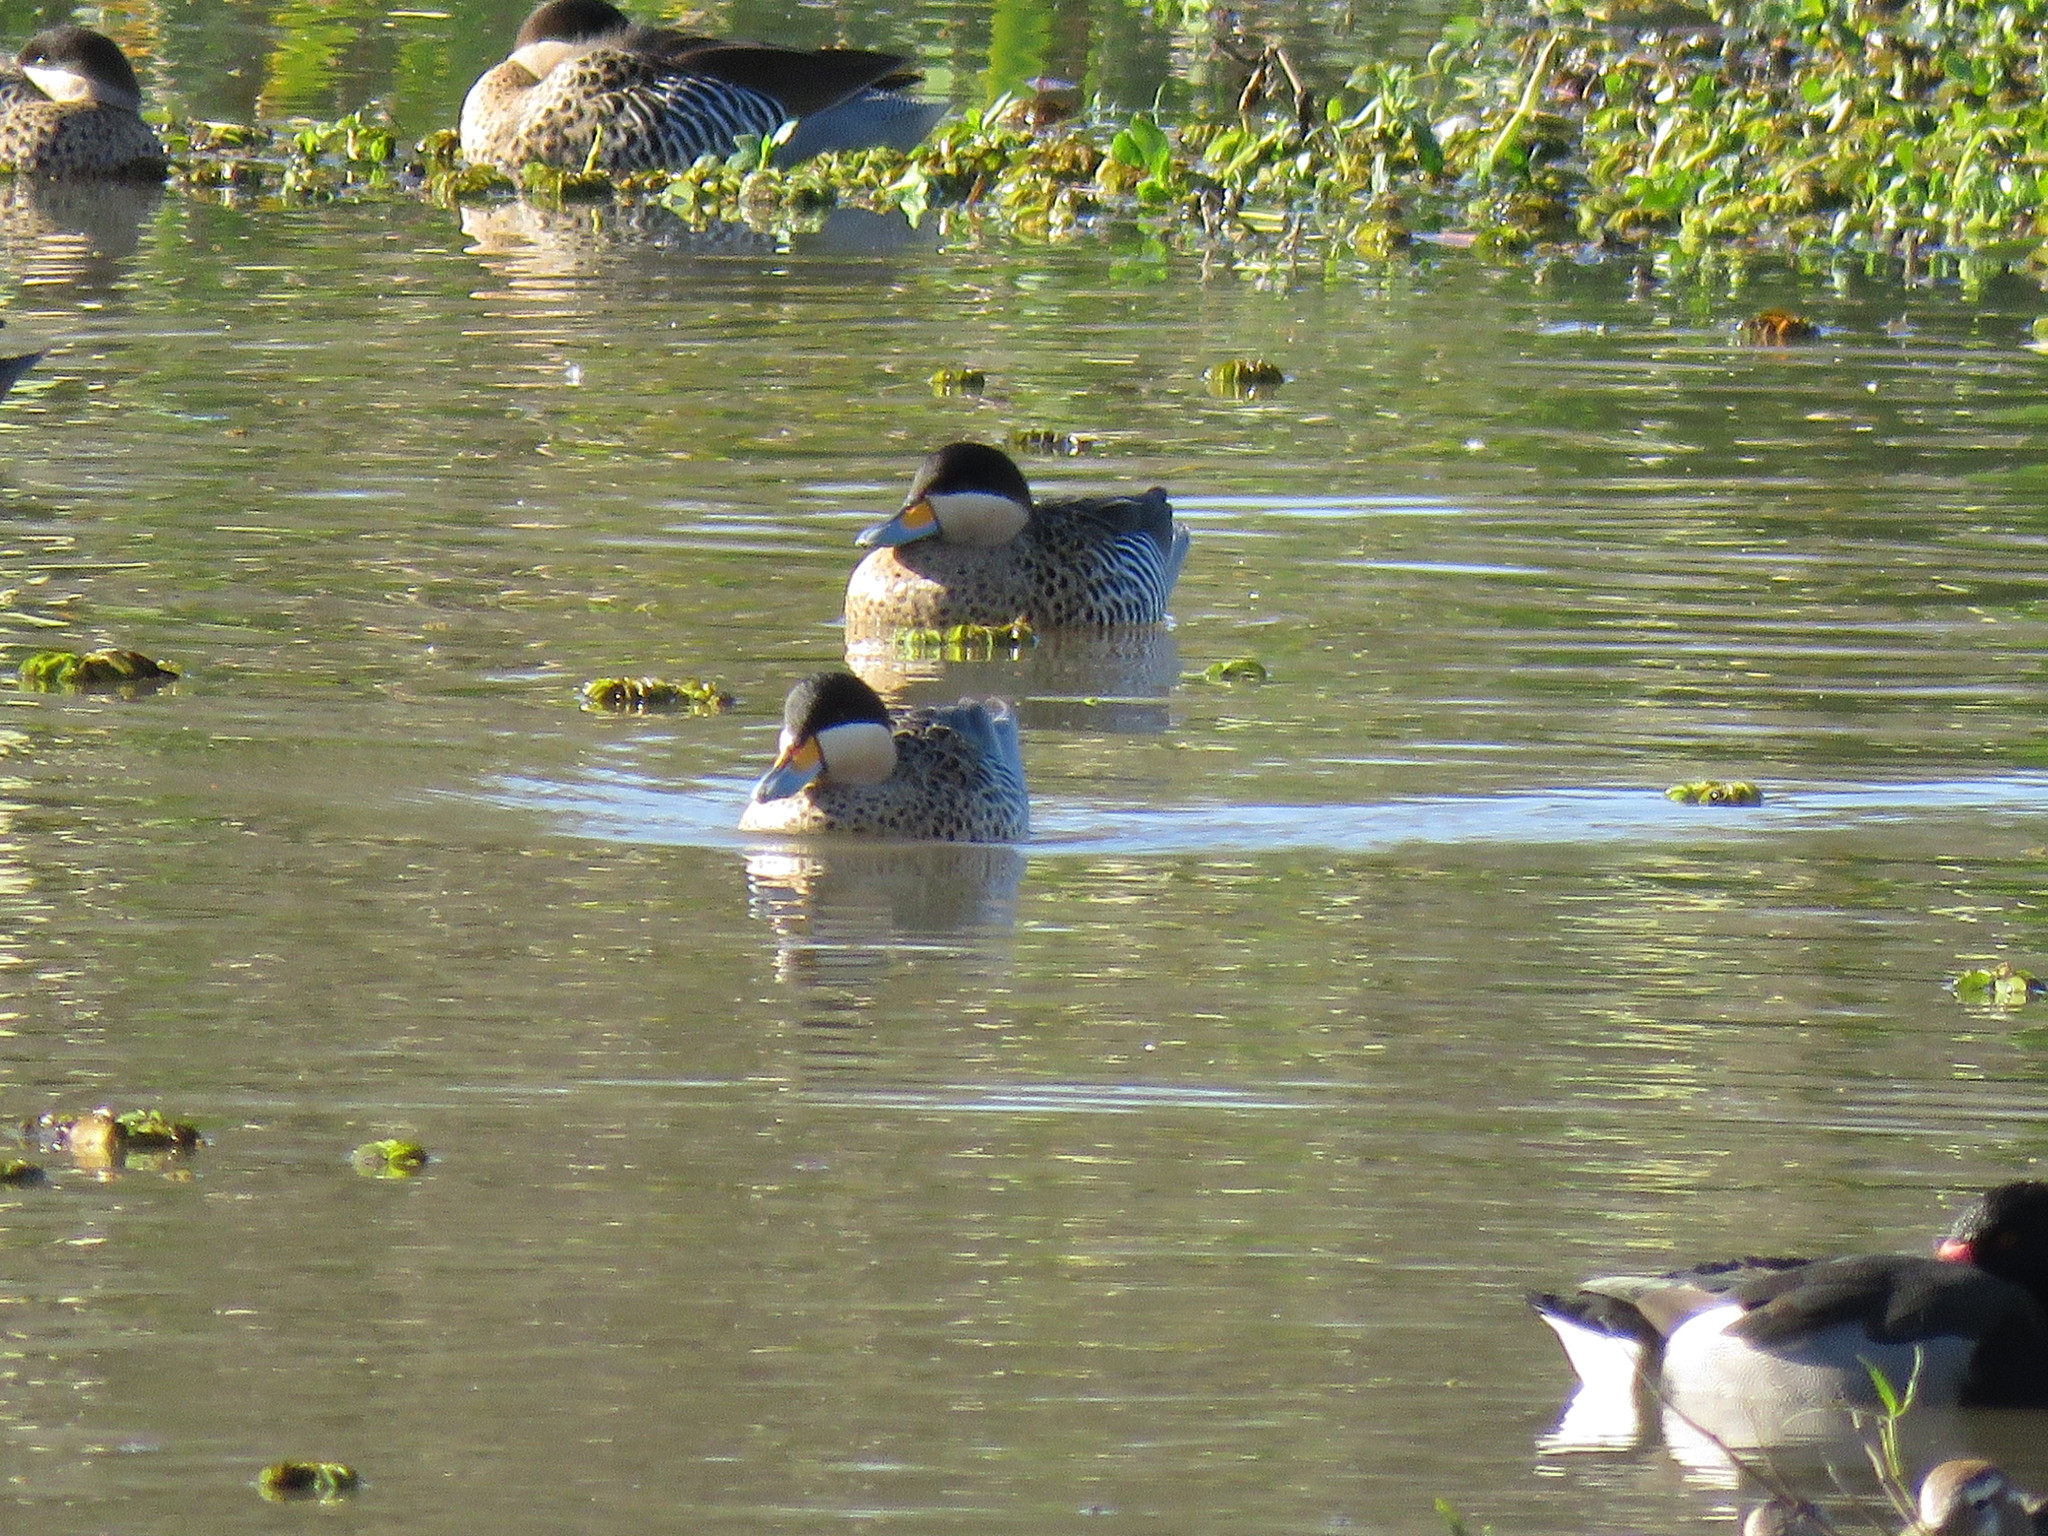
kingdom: Animalia
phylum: Chordata
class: Aves
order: Anseriformes
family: Anatidae
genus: Spatula
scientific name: Spatula versicolor
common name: Silver teal
